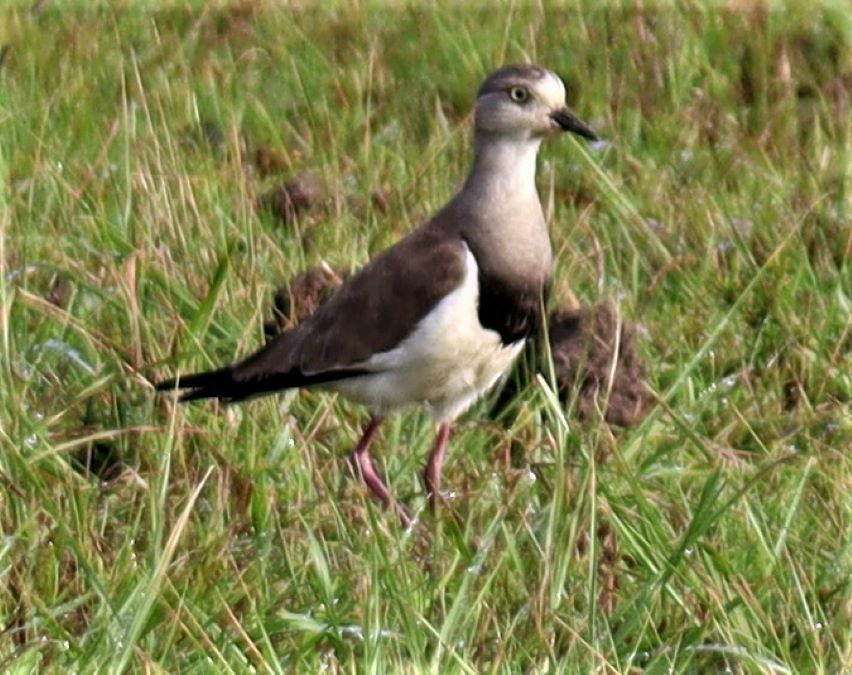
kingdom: Animalia
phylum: Chordata
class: Aves
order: Charadriiformes
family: Charadriidae
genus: Vanellus
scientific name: Vanellus lugubris
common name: Senegal lapwing
